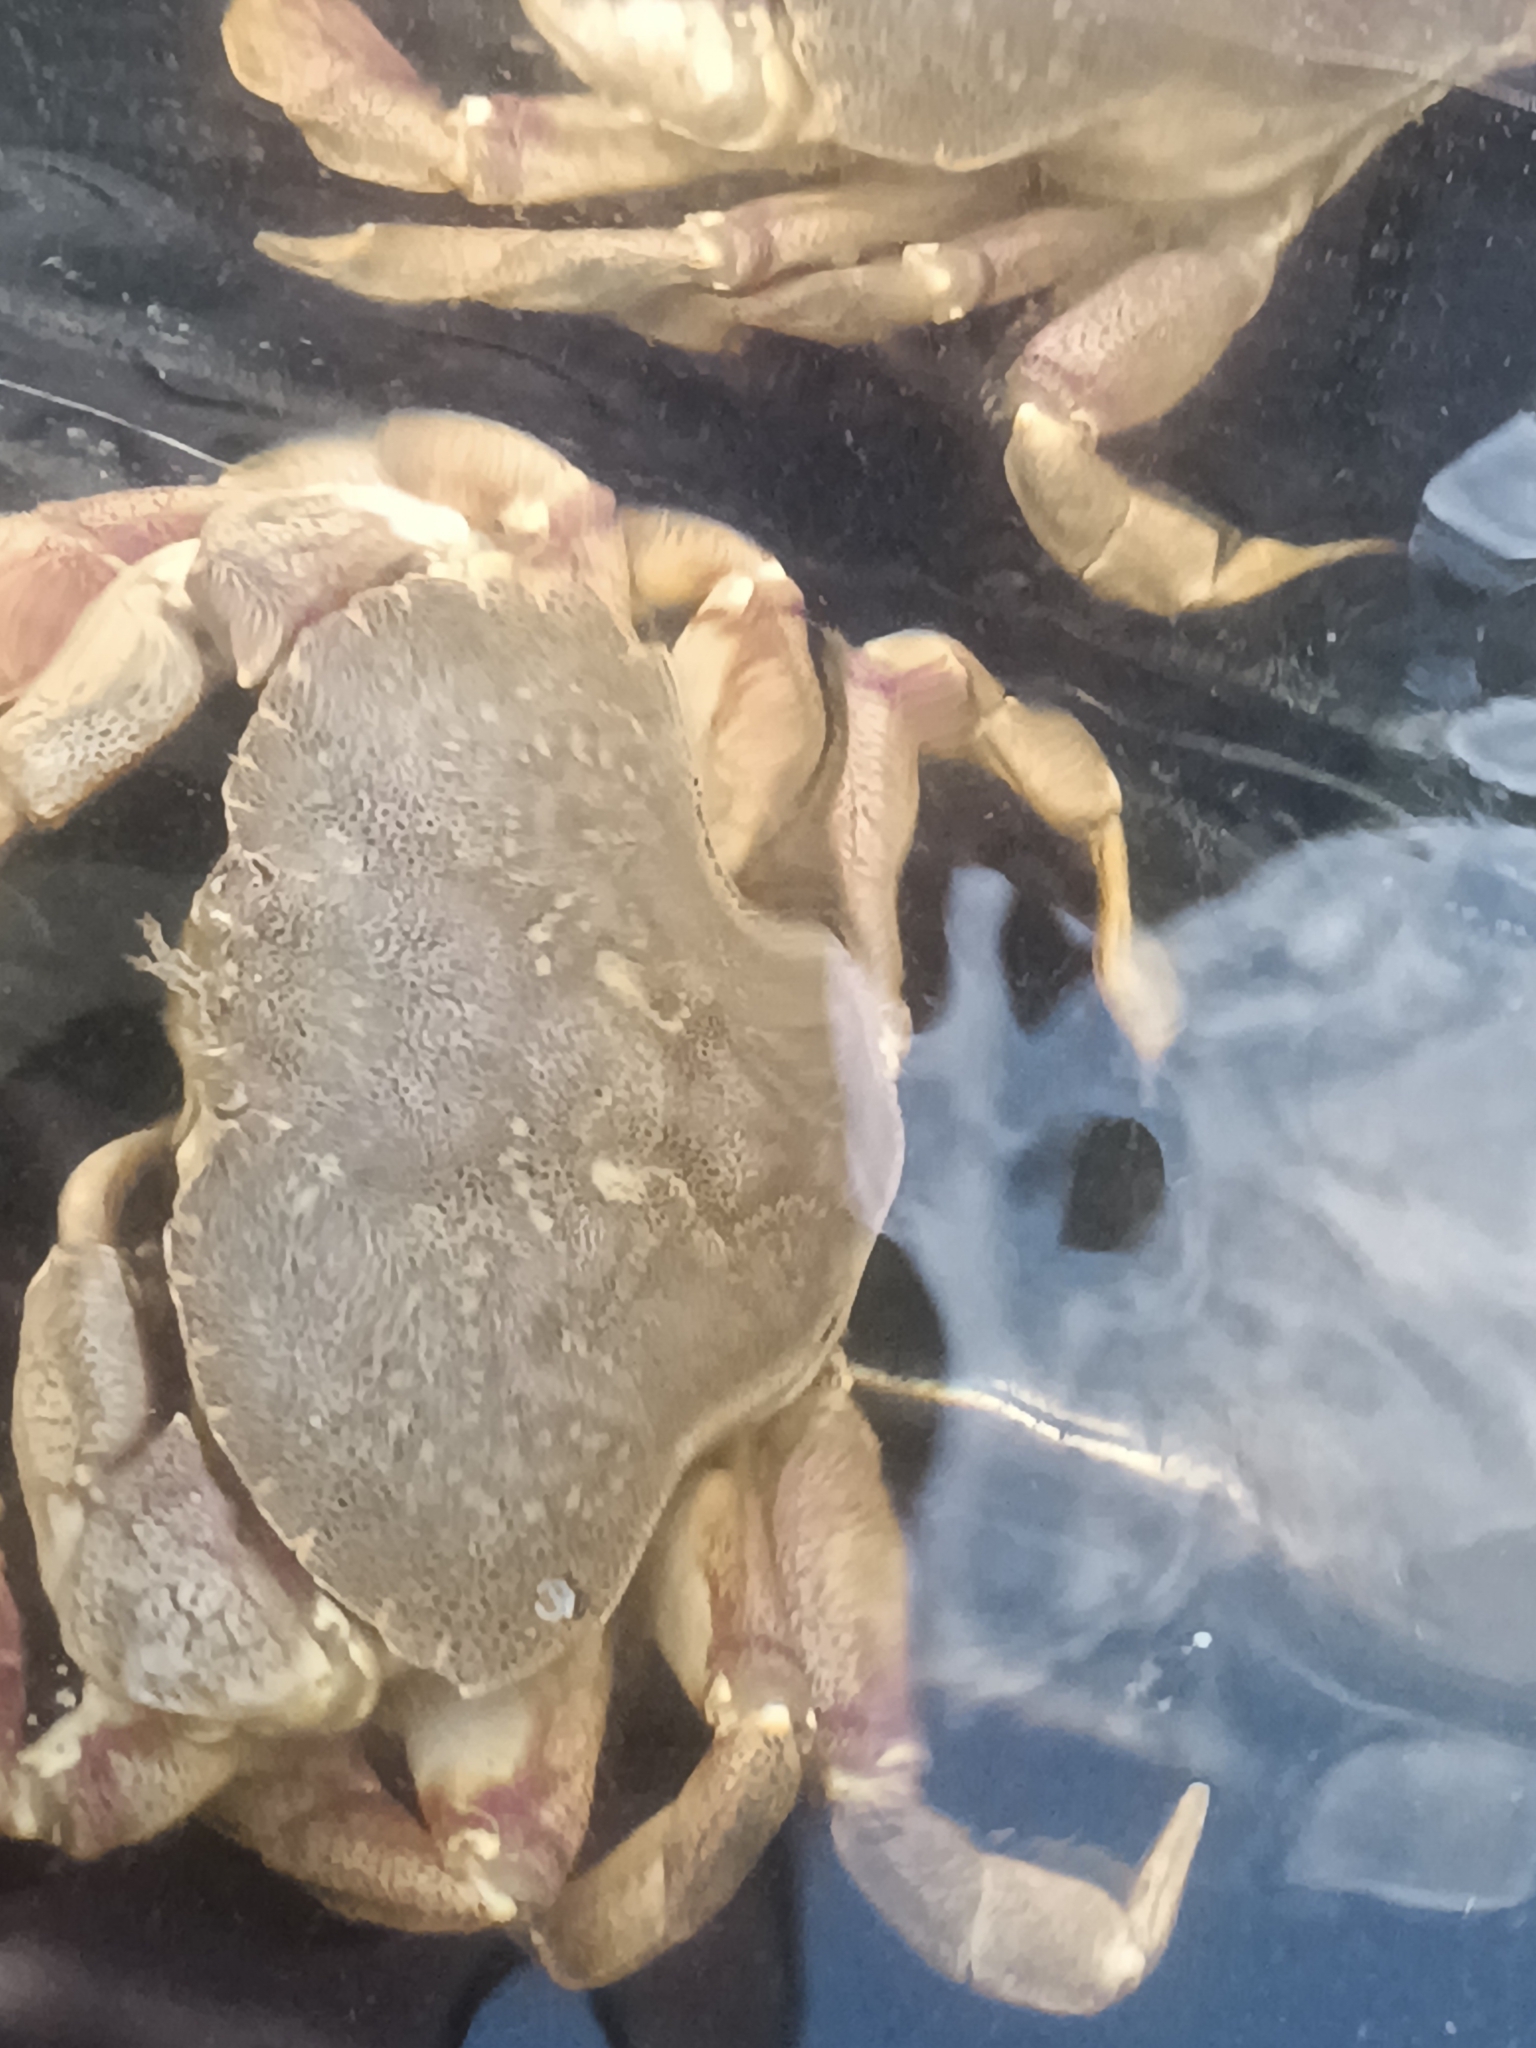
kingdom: Animalia
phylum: Arthropoda
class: Malacostraca
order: Decapoda
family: Cancridae
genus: Cancer
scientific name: Cancer irroratus
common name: Atlantic rock crab
